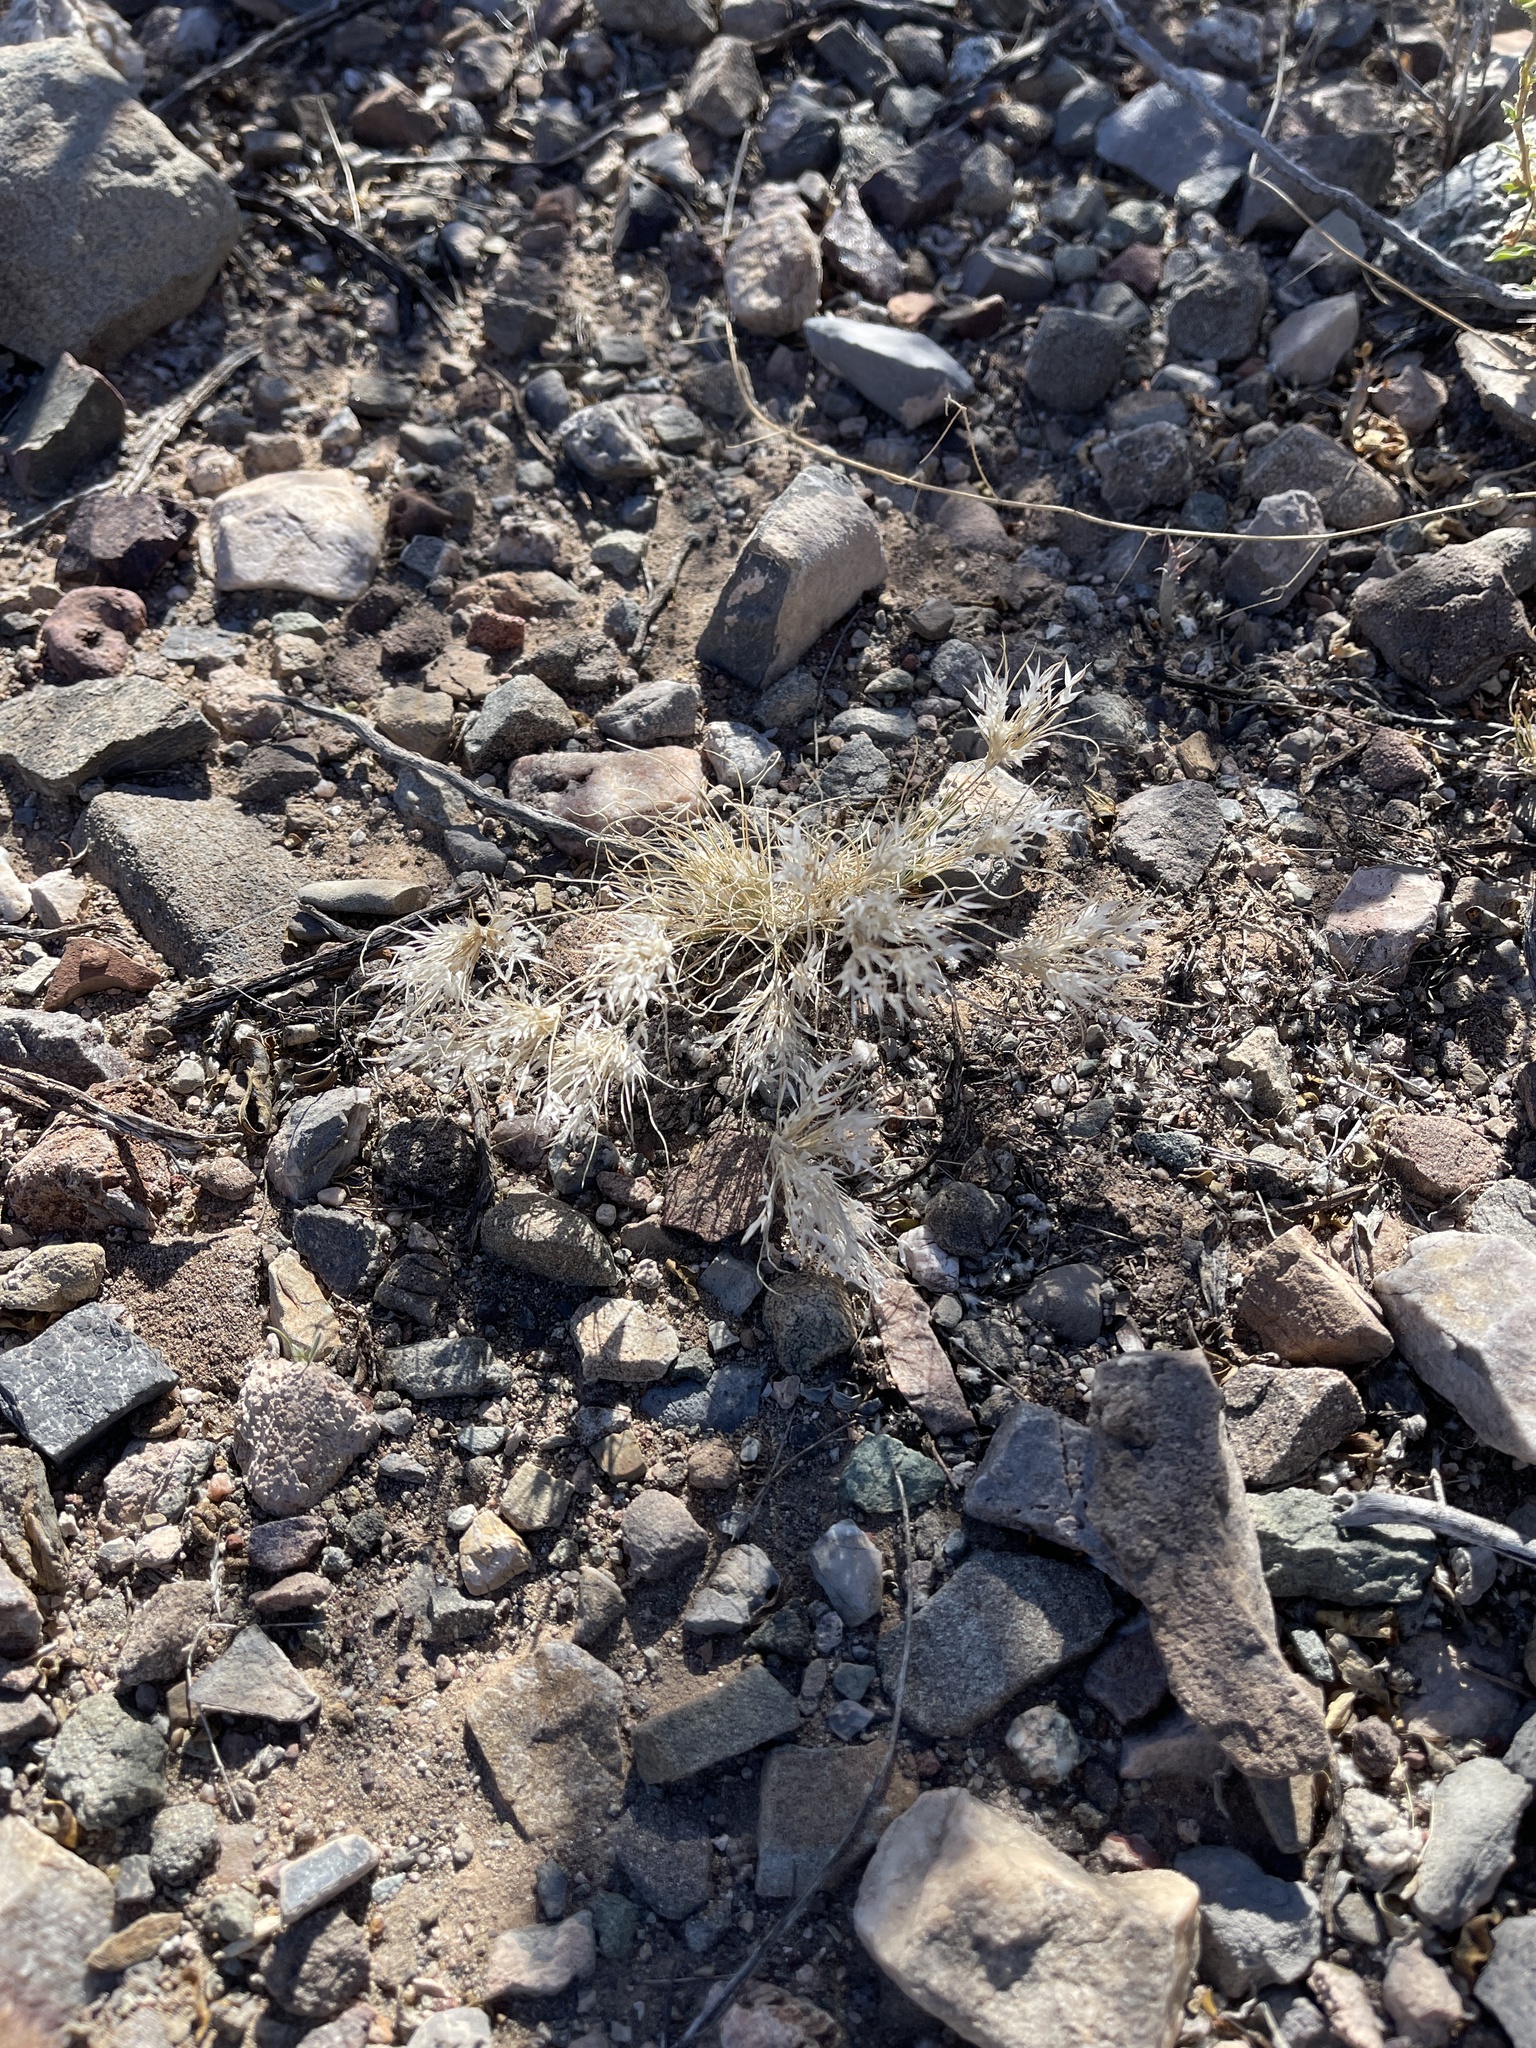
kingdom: Plantae
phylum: Tracheophyta
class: Liliopsida
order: Poales
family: Poaceae
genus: Dasyochloa
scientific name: Dasyochloa pulchella
